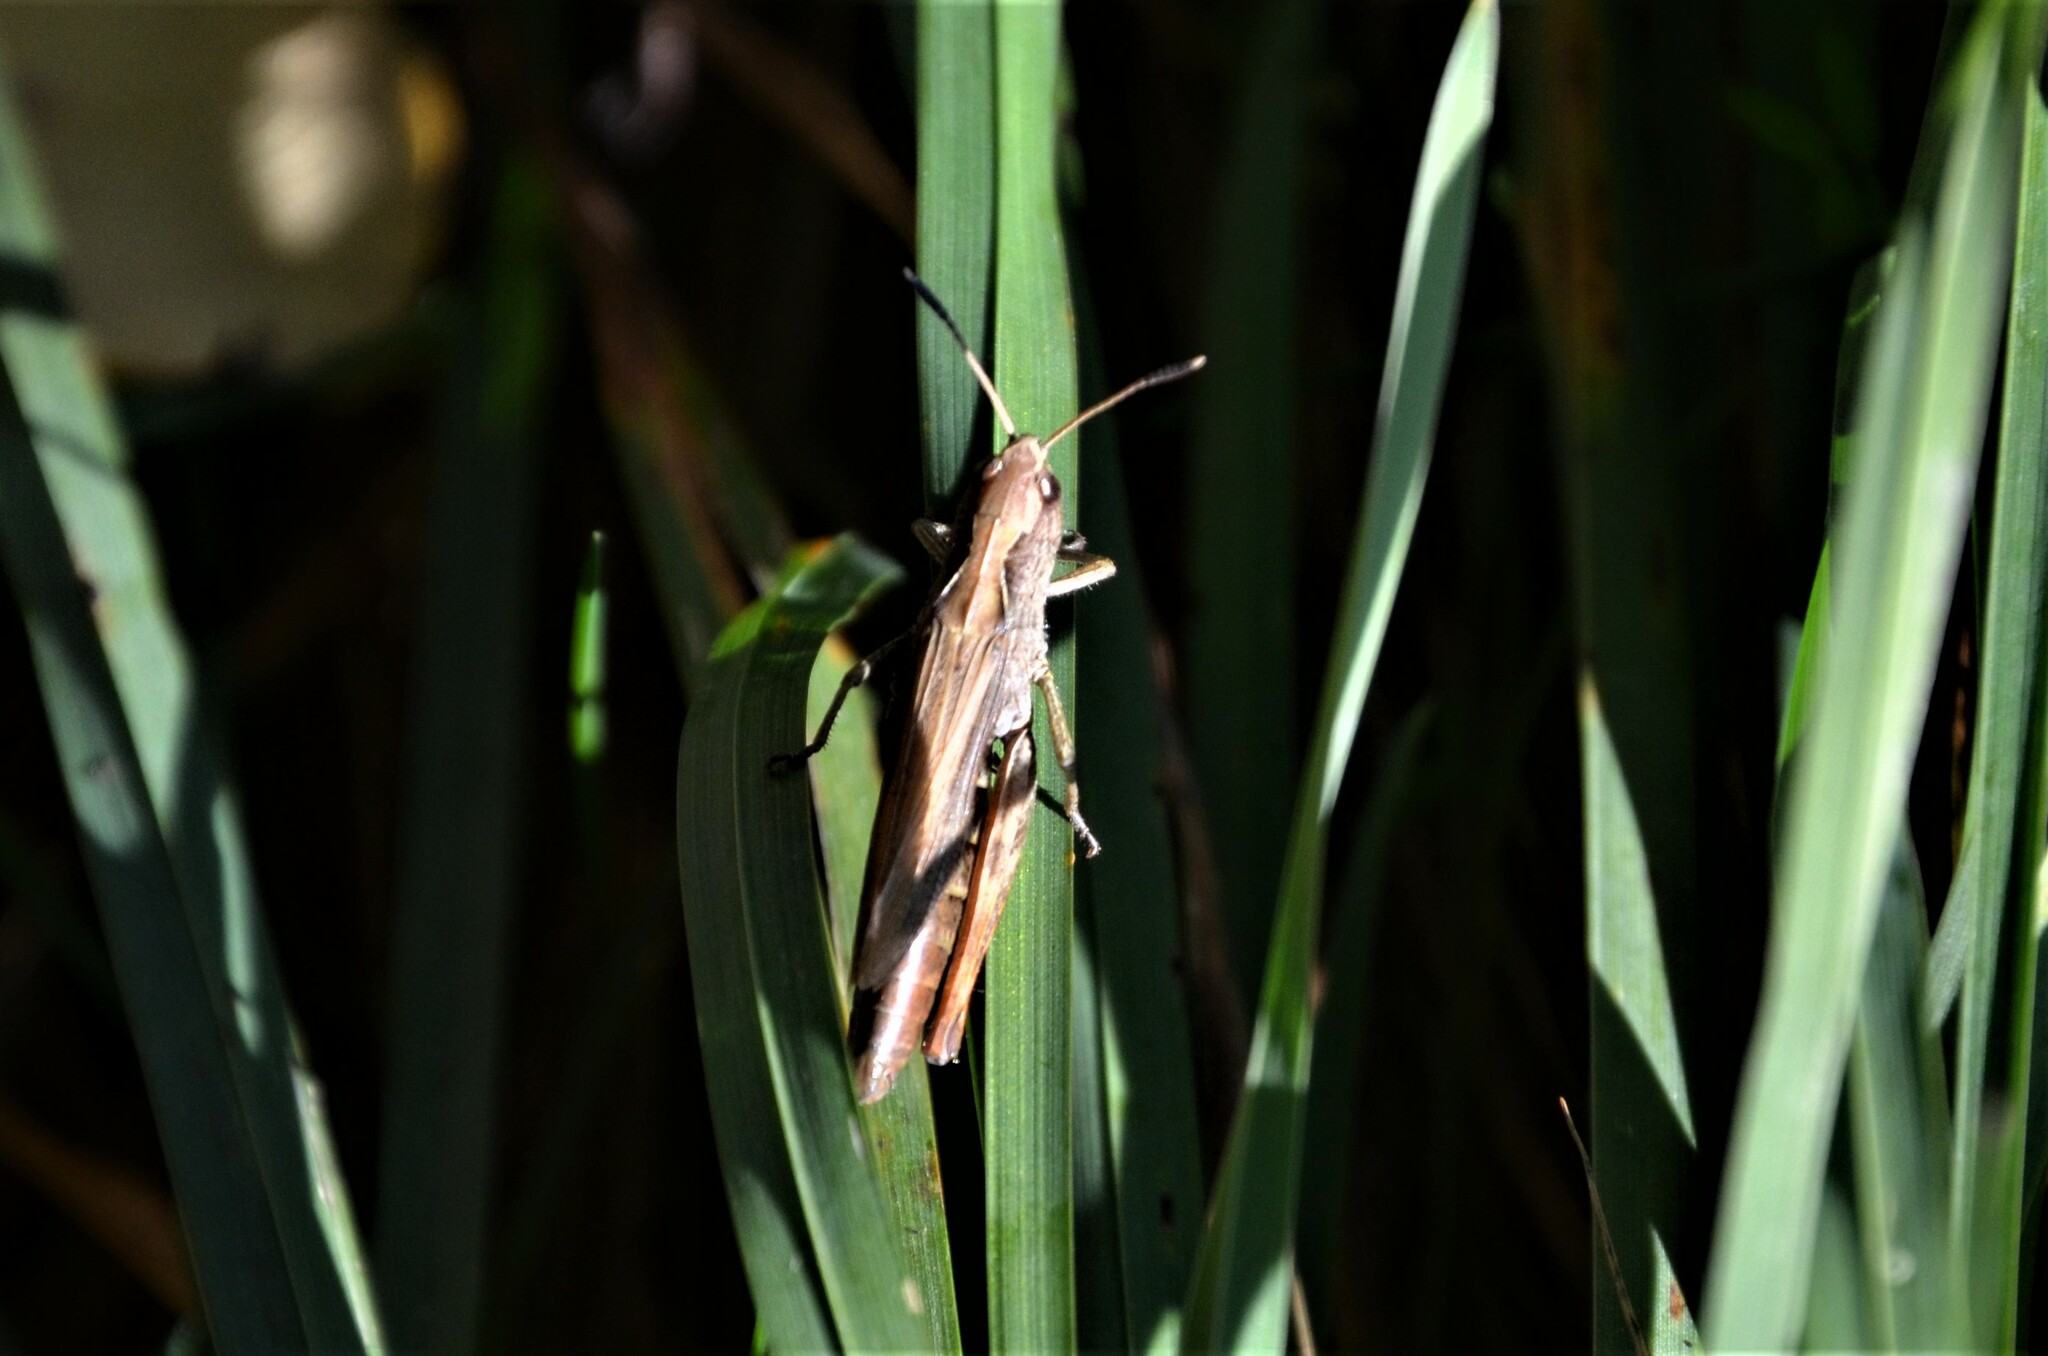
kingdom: Animalia
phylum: Arthropoda
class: Insecta
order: Orthoptera
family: Acrididae
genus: Gomphocerippus
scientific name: Gomphocerippus rufus
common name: Rufous grasshopper
